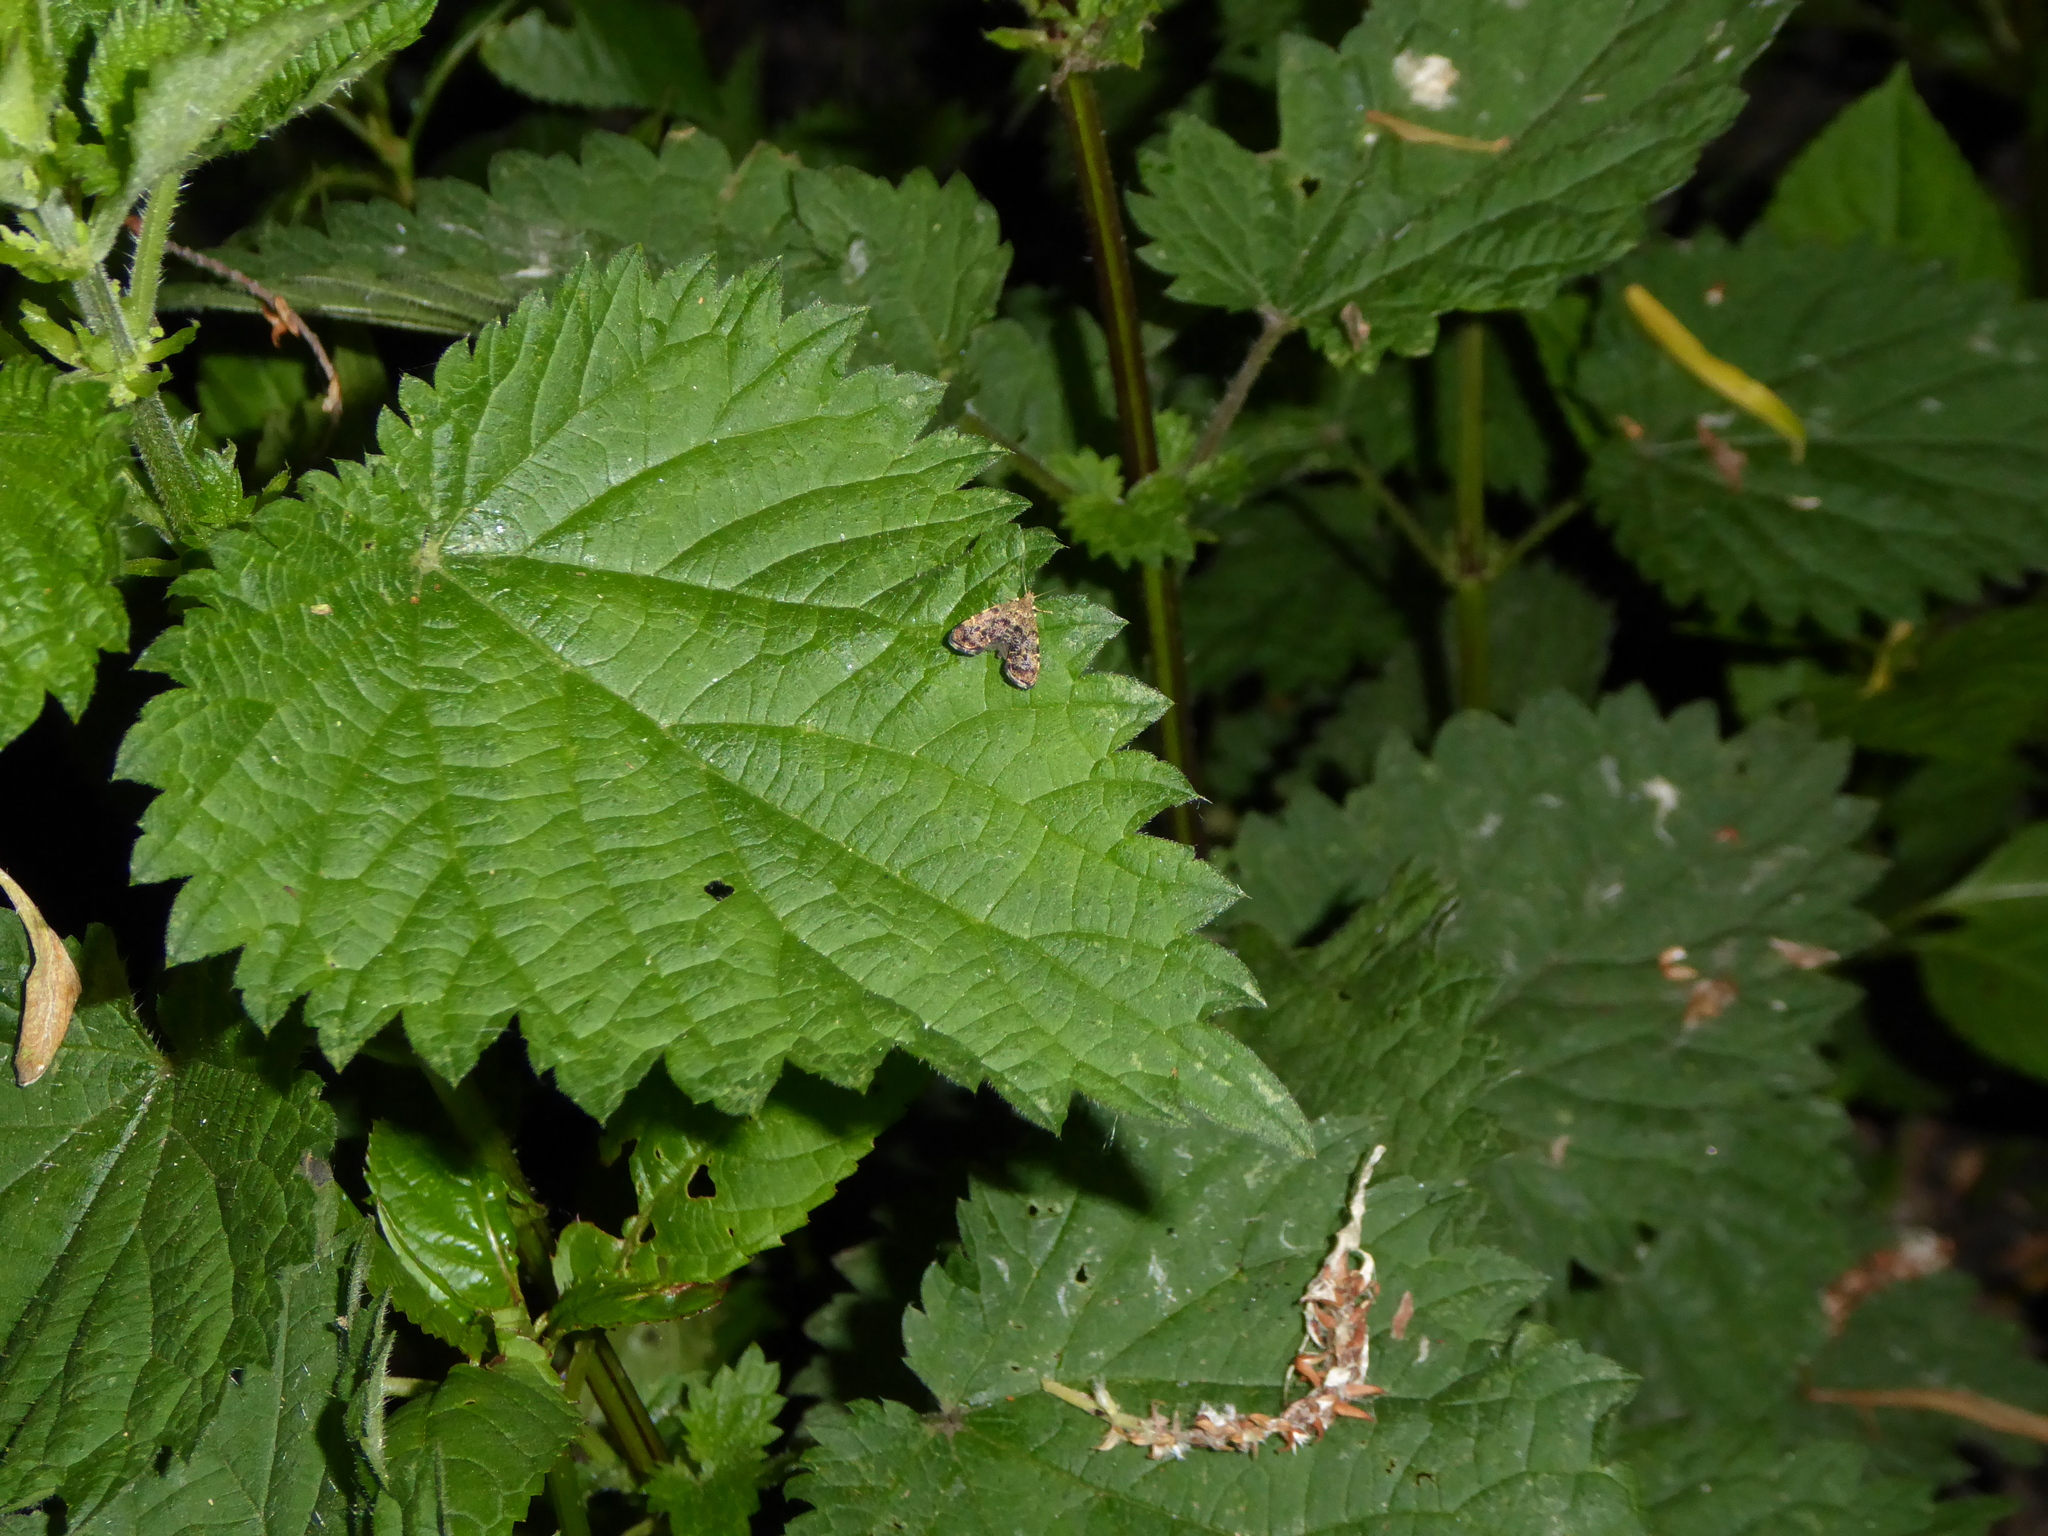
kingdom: Animalia
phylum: Arthropoda
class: Insecta
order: Lepidoptera
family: Choreutidae
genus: Anthophila
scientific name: Anthophila fabriciana
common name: Nettle-tap
